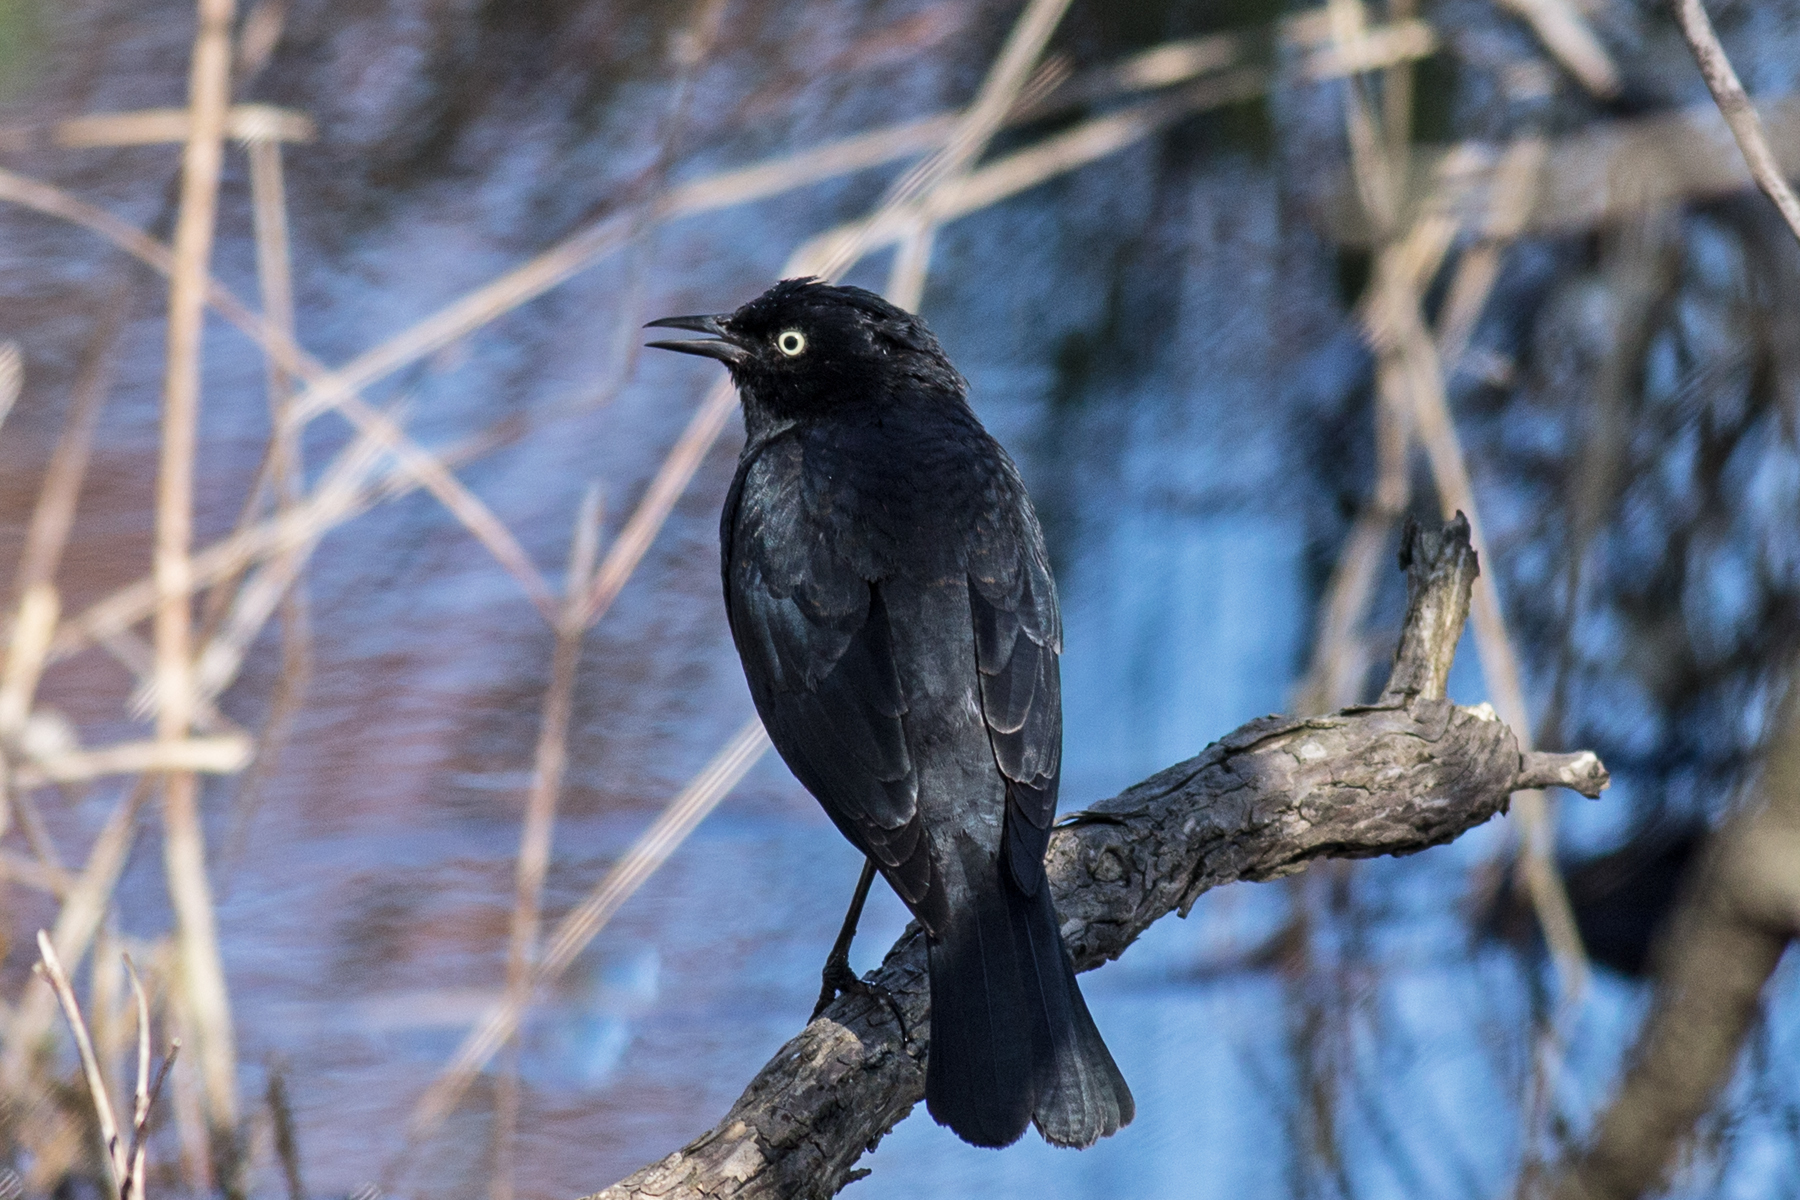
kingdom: Animalia
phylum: Chordata
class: Aves
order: Passeriformes
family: Icteridae
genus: Euphagus
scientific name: Euphagus carolinus
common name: Rusty blackbird
